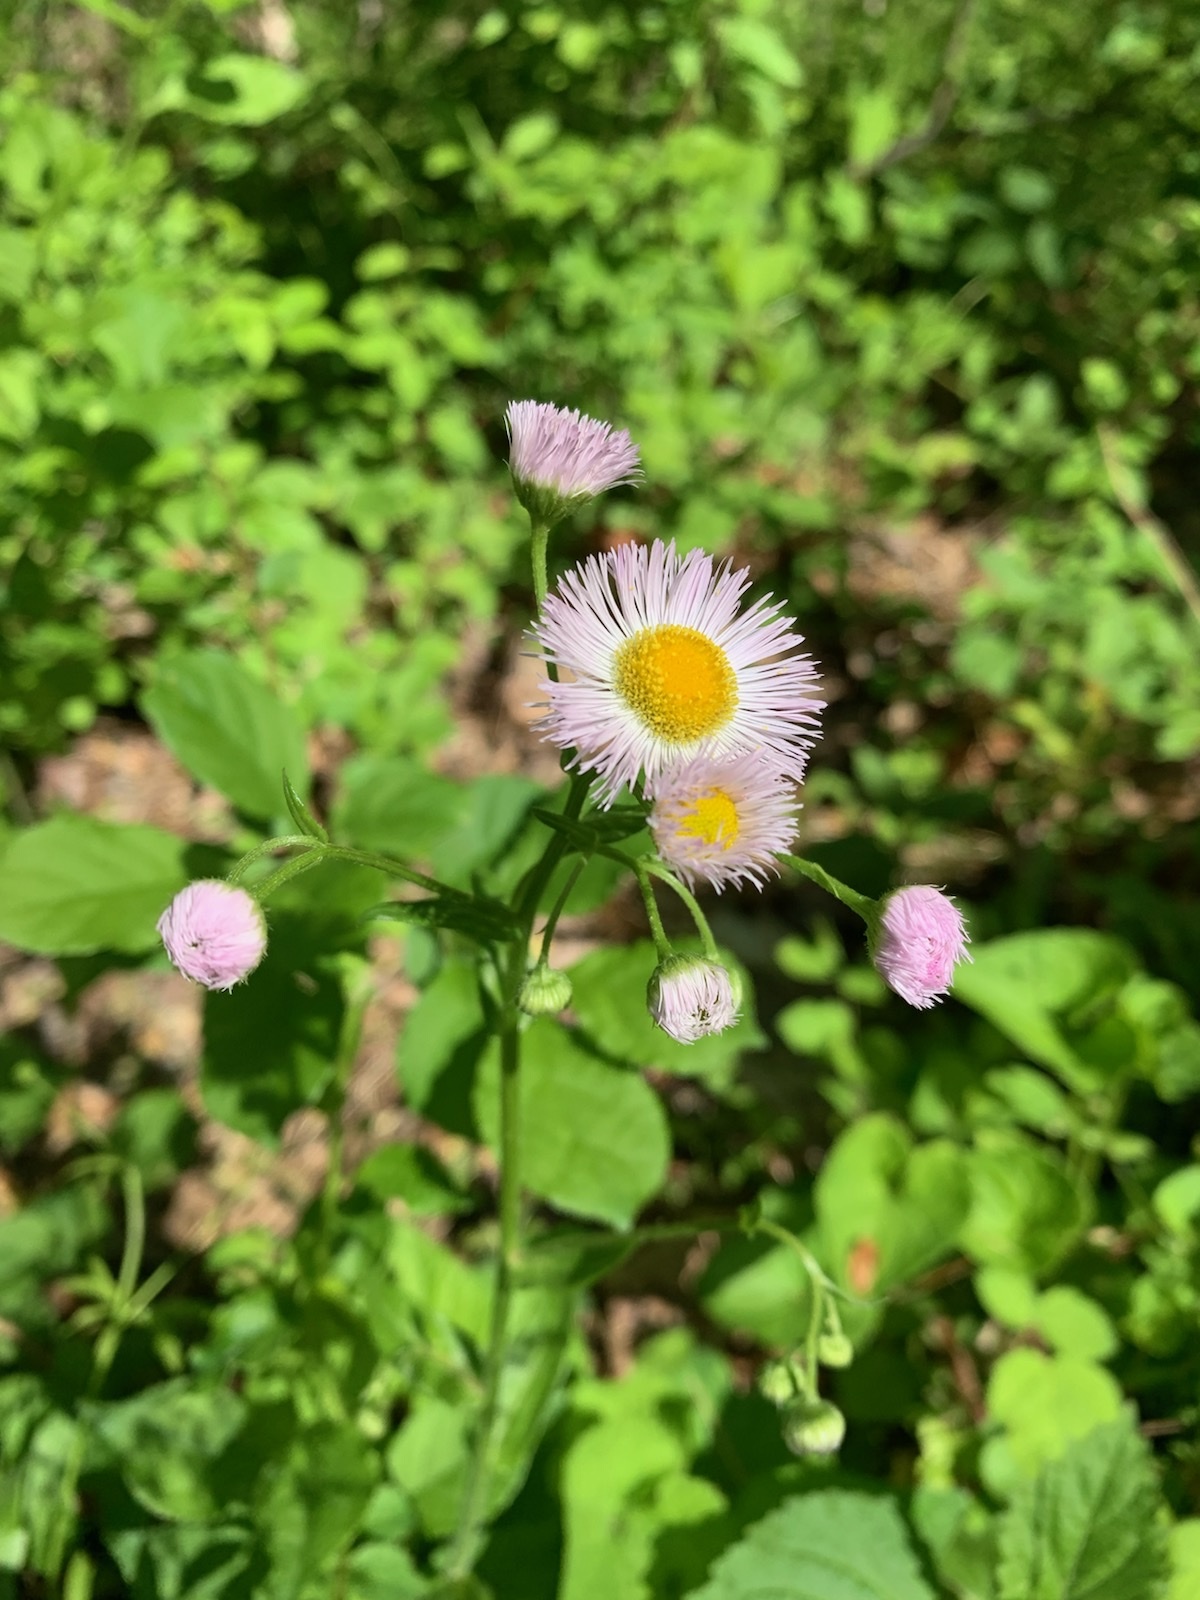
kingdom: Plantae
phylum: Tracheophyta
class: Magnoliopsida
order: Asterales
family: Asteraceae
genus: Erigeron
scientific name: Erigeron philadelphicus
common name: Robin's-plantain
